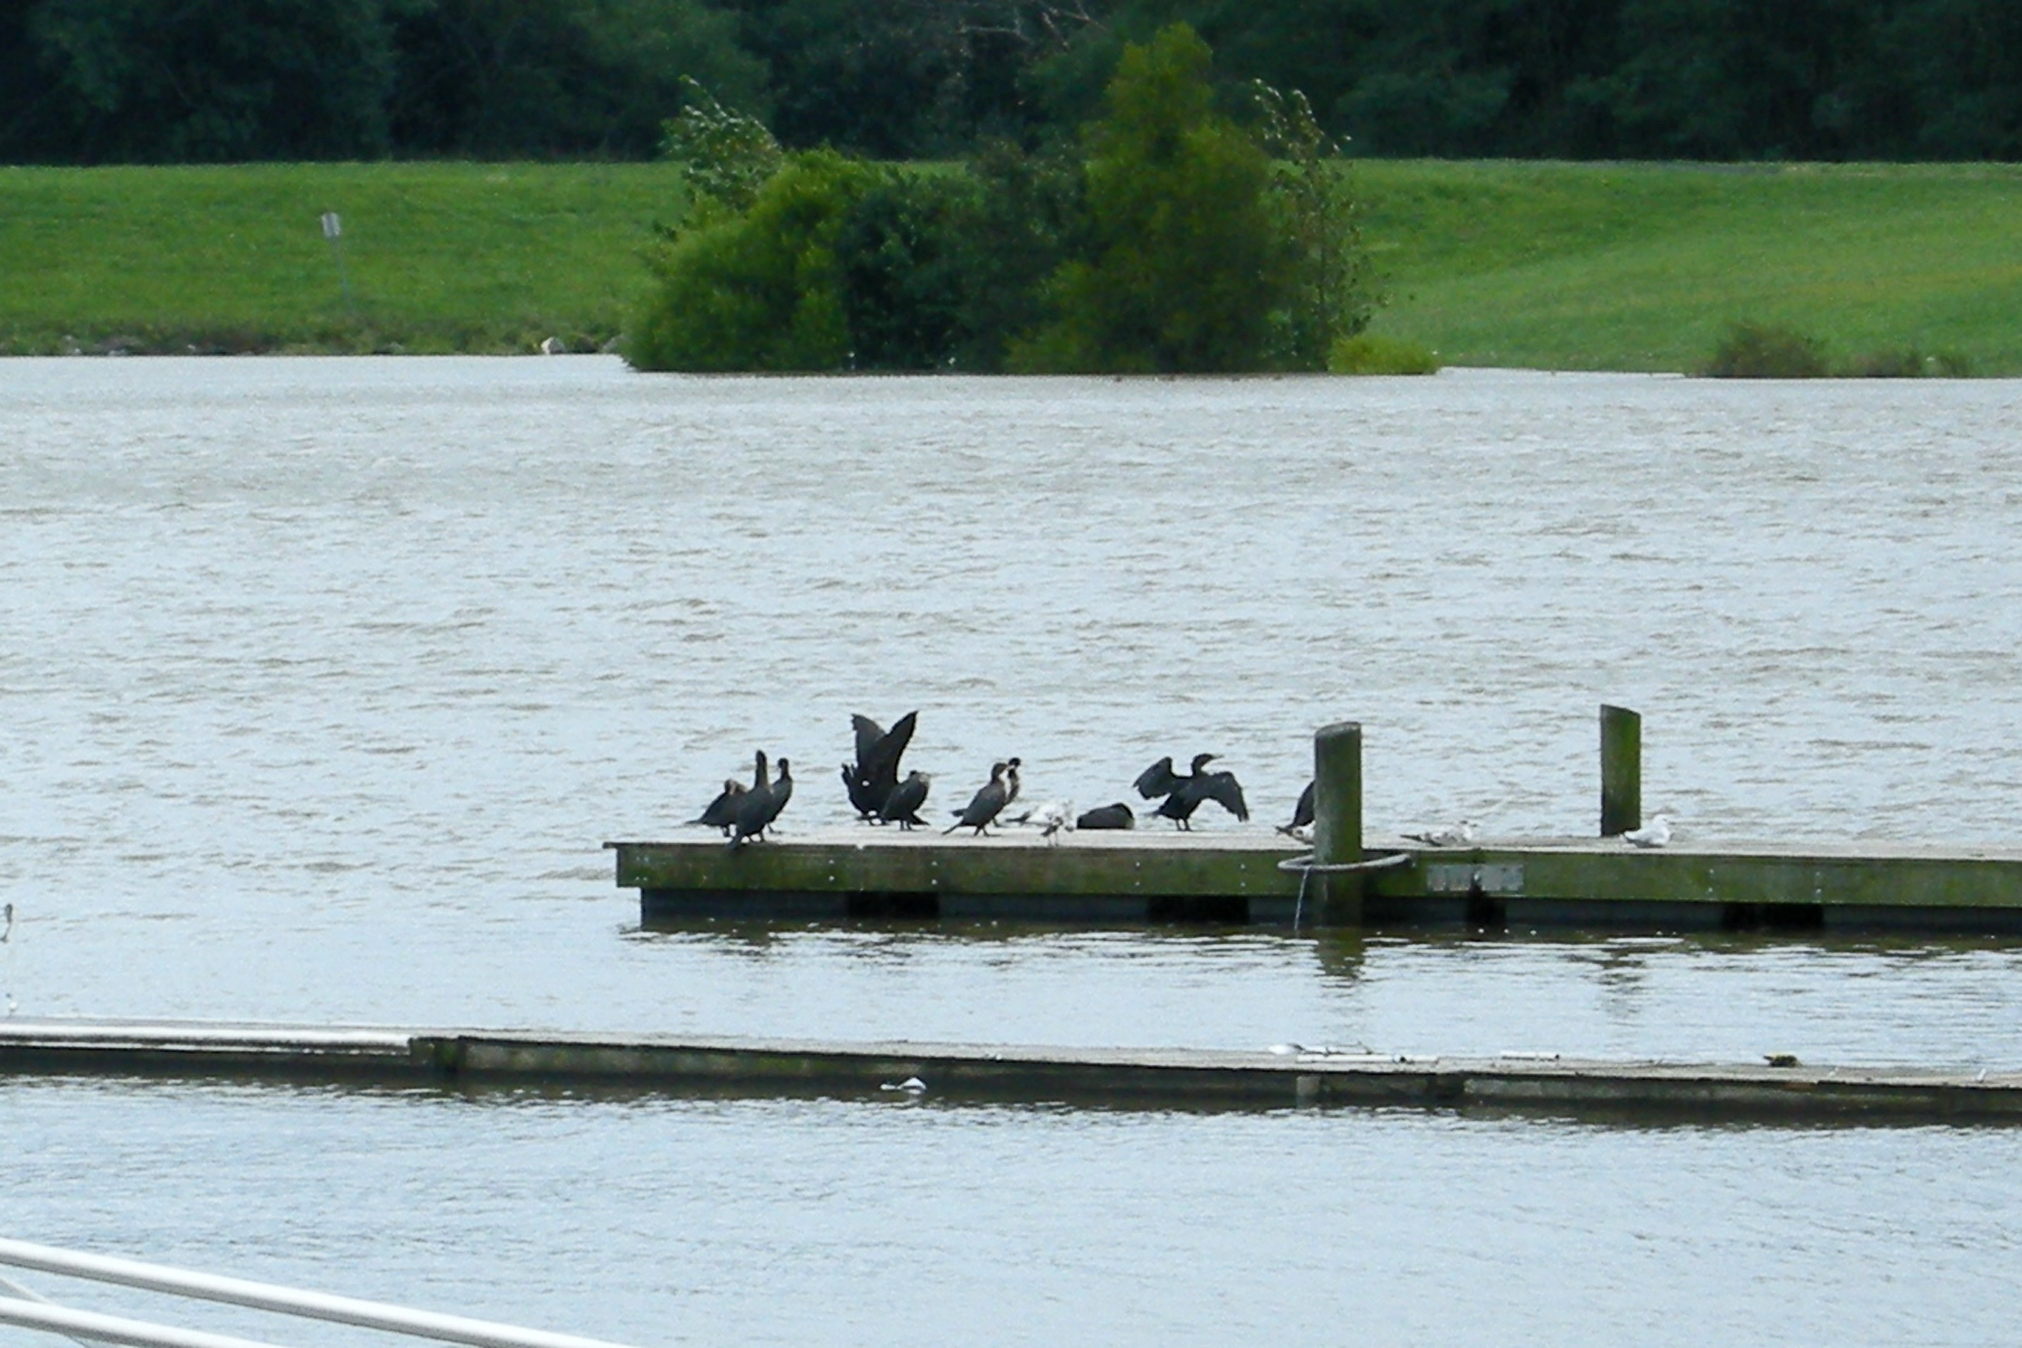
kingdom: Animalia
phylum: Chordata
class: Aves
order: Suliformes
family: Phalacrocoracidae
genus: Phalacrocorax
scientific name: Phalacrocorax auritus
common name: Double-crested cormorant
